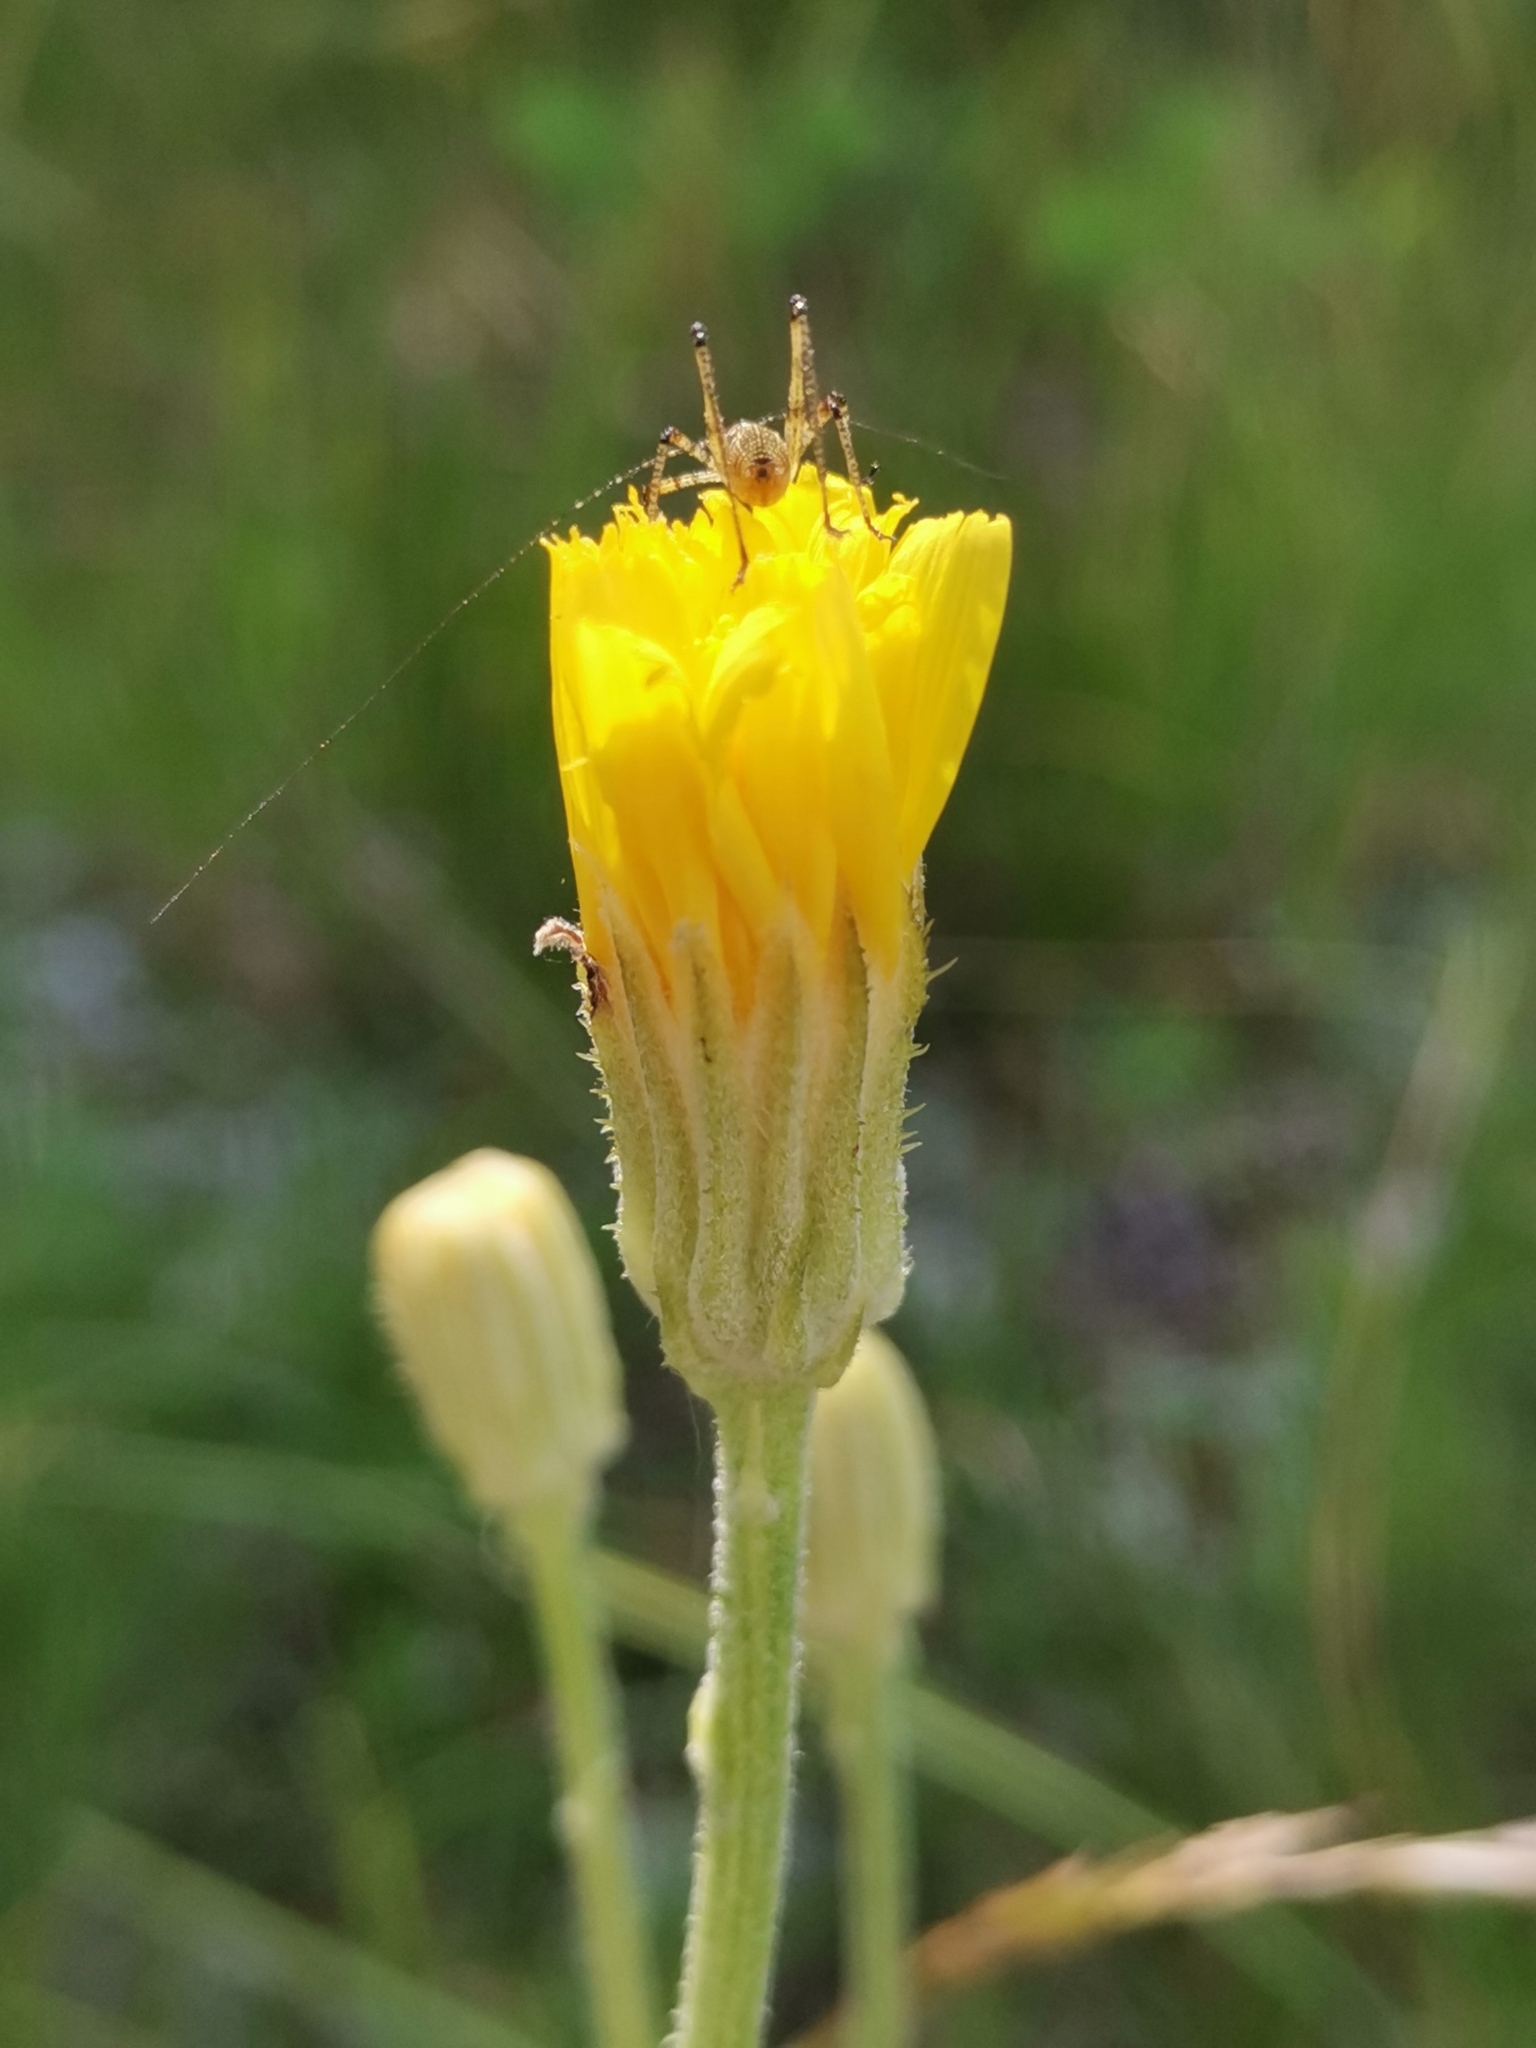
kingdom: Plantae
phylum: Tracheophyta
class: Magnoliopsida
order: Asterales
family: Asteraceae
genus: Crepis
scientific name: Crepis chondrilloides
